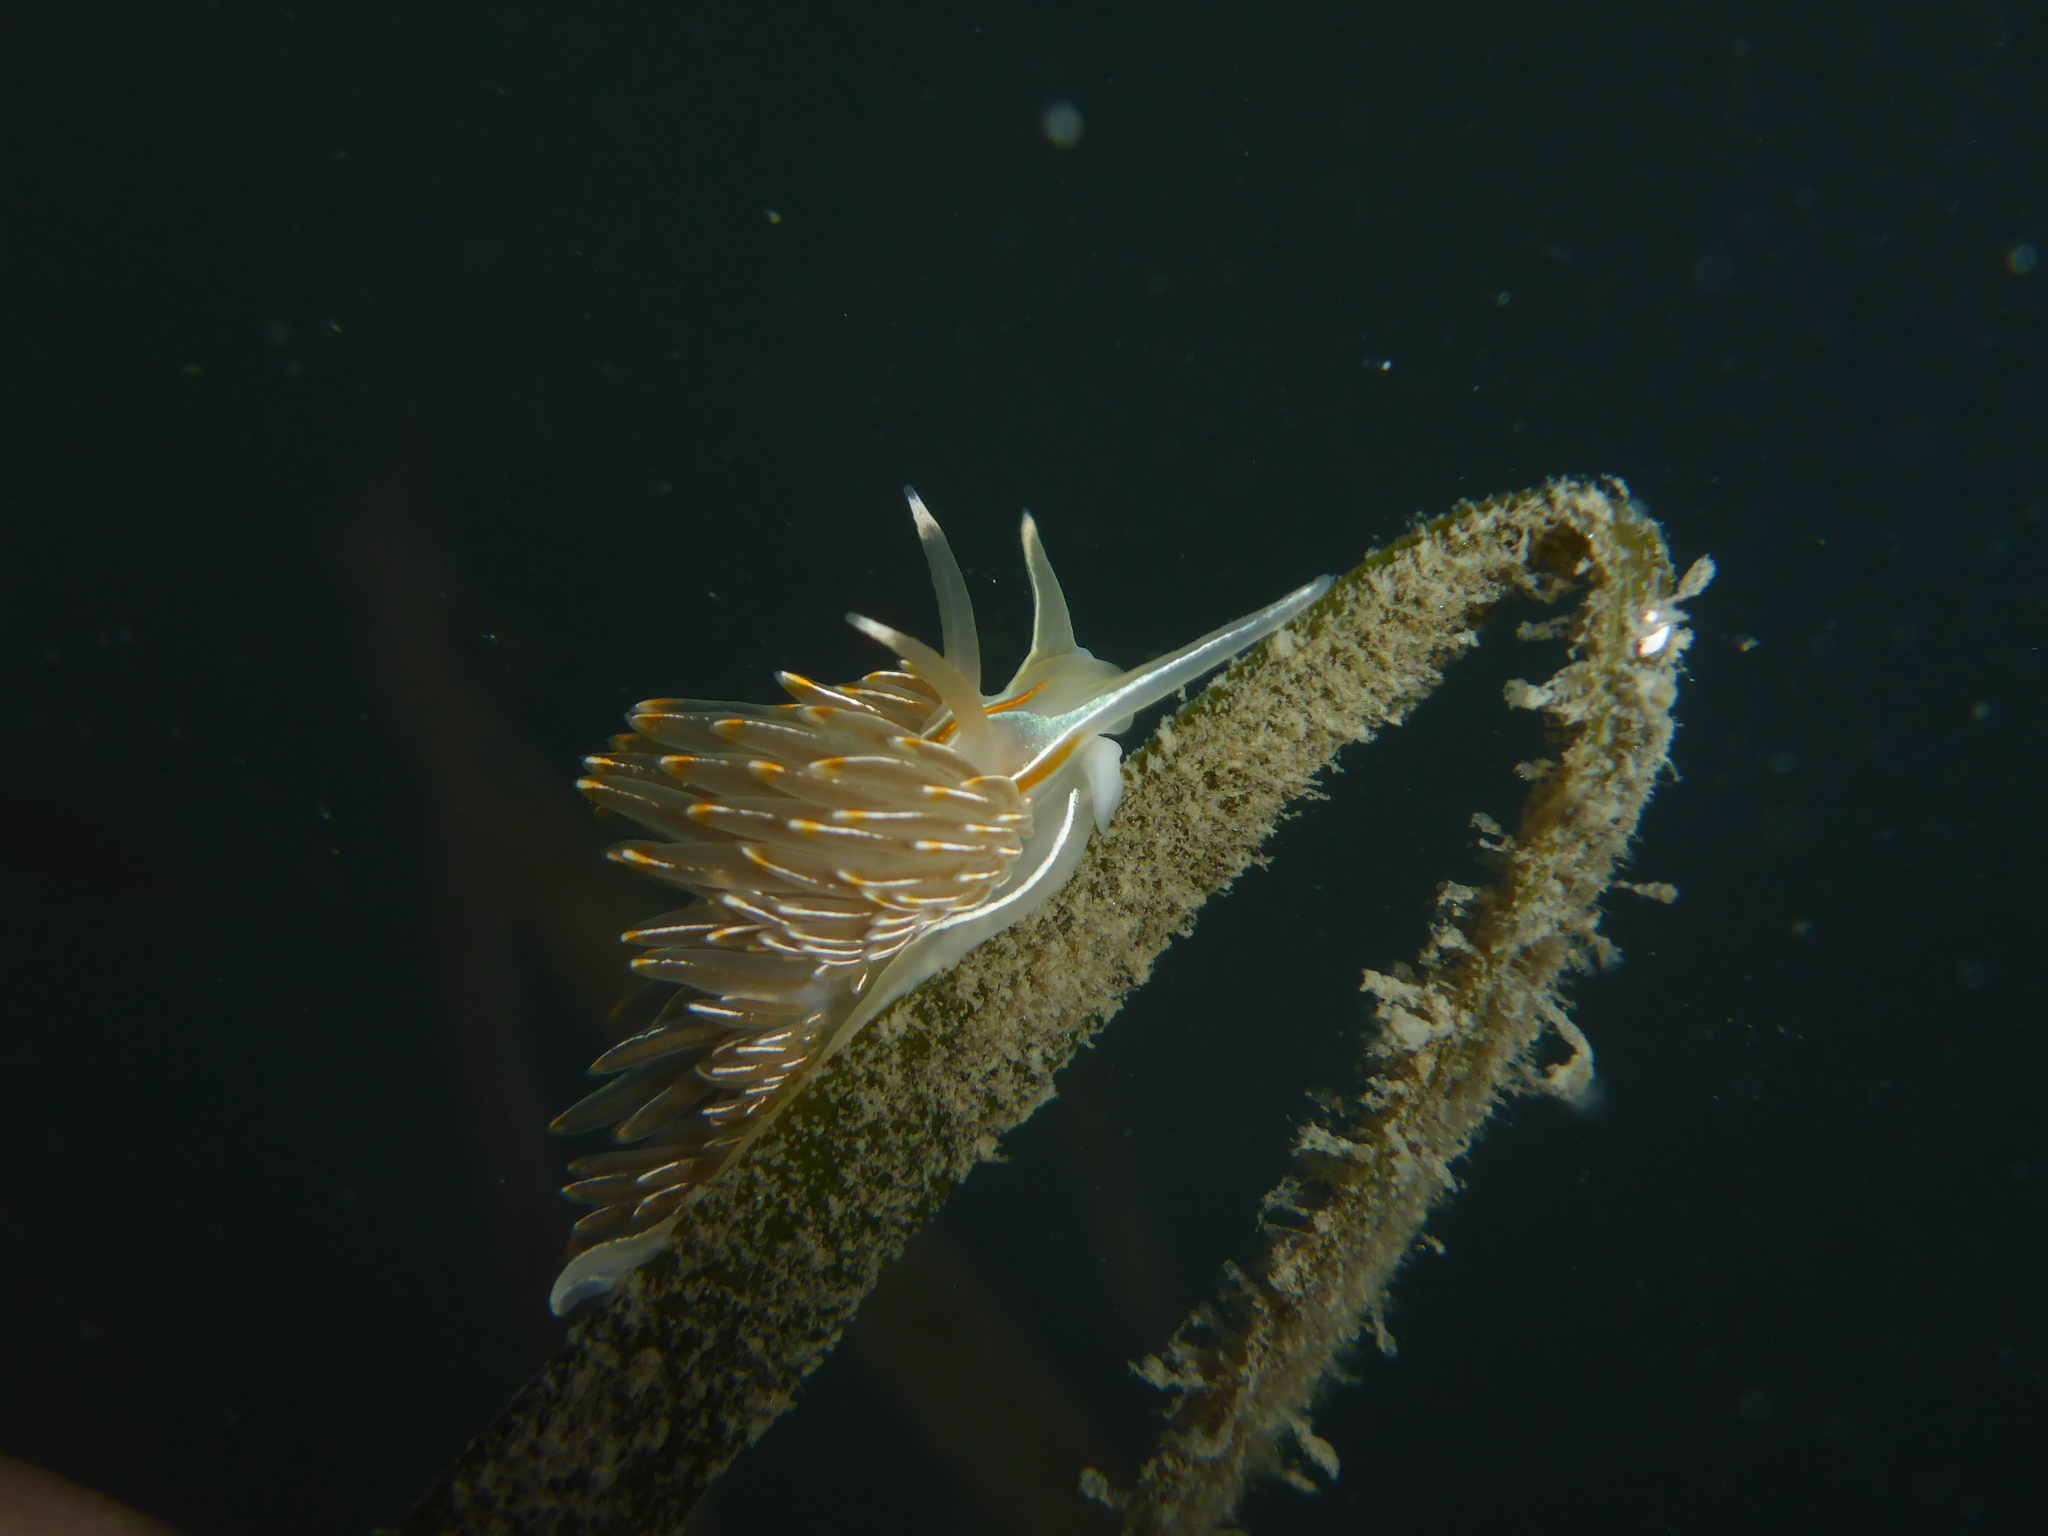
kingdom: Animalia
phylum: Mollusca
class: Gastropoda
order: Nudibranchia
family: Myrrhinidae
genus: Hermissenda
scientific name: Hermissenda crassicornis
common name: Hermissenda
